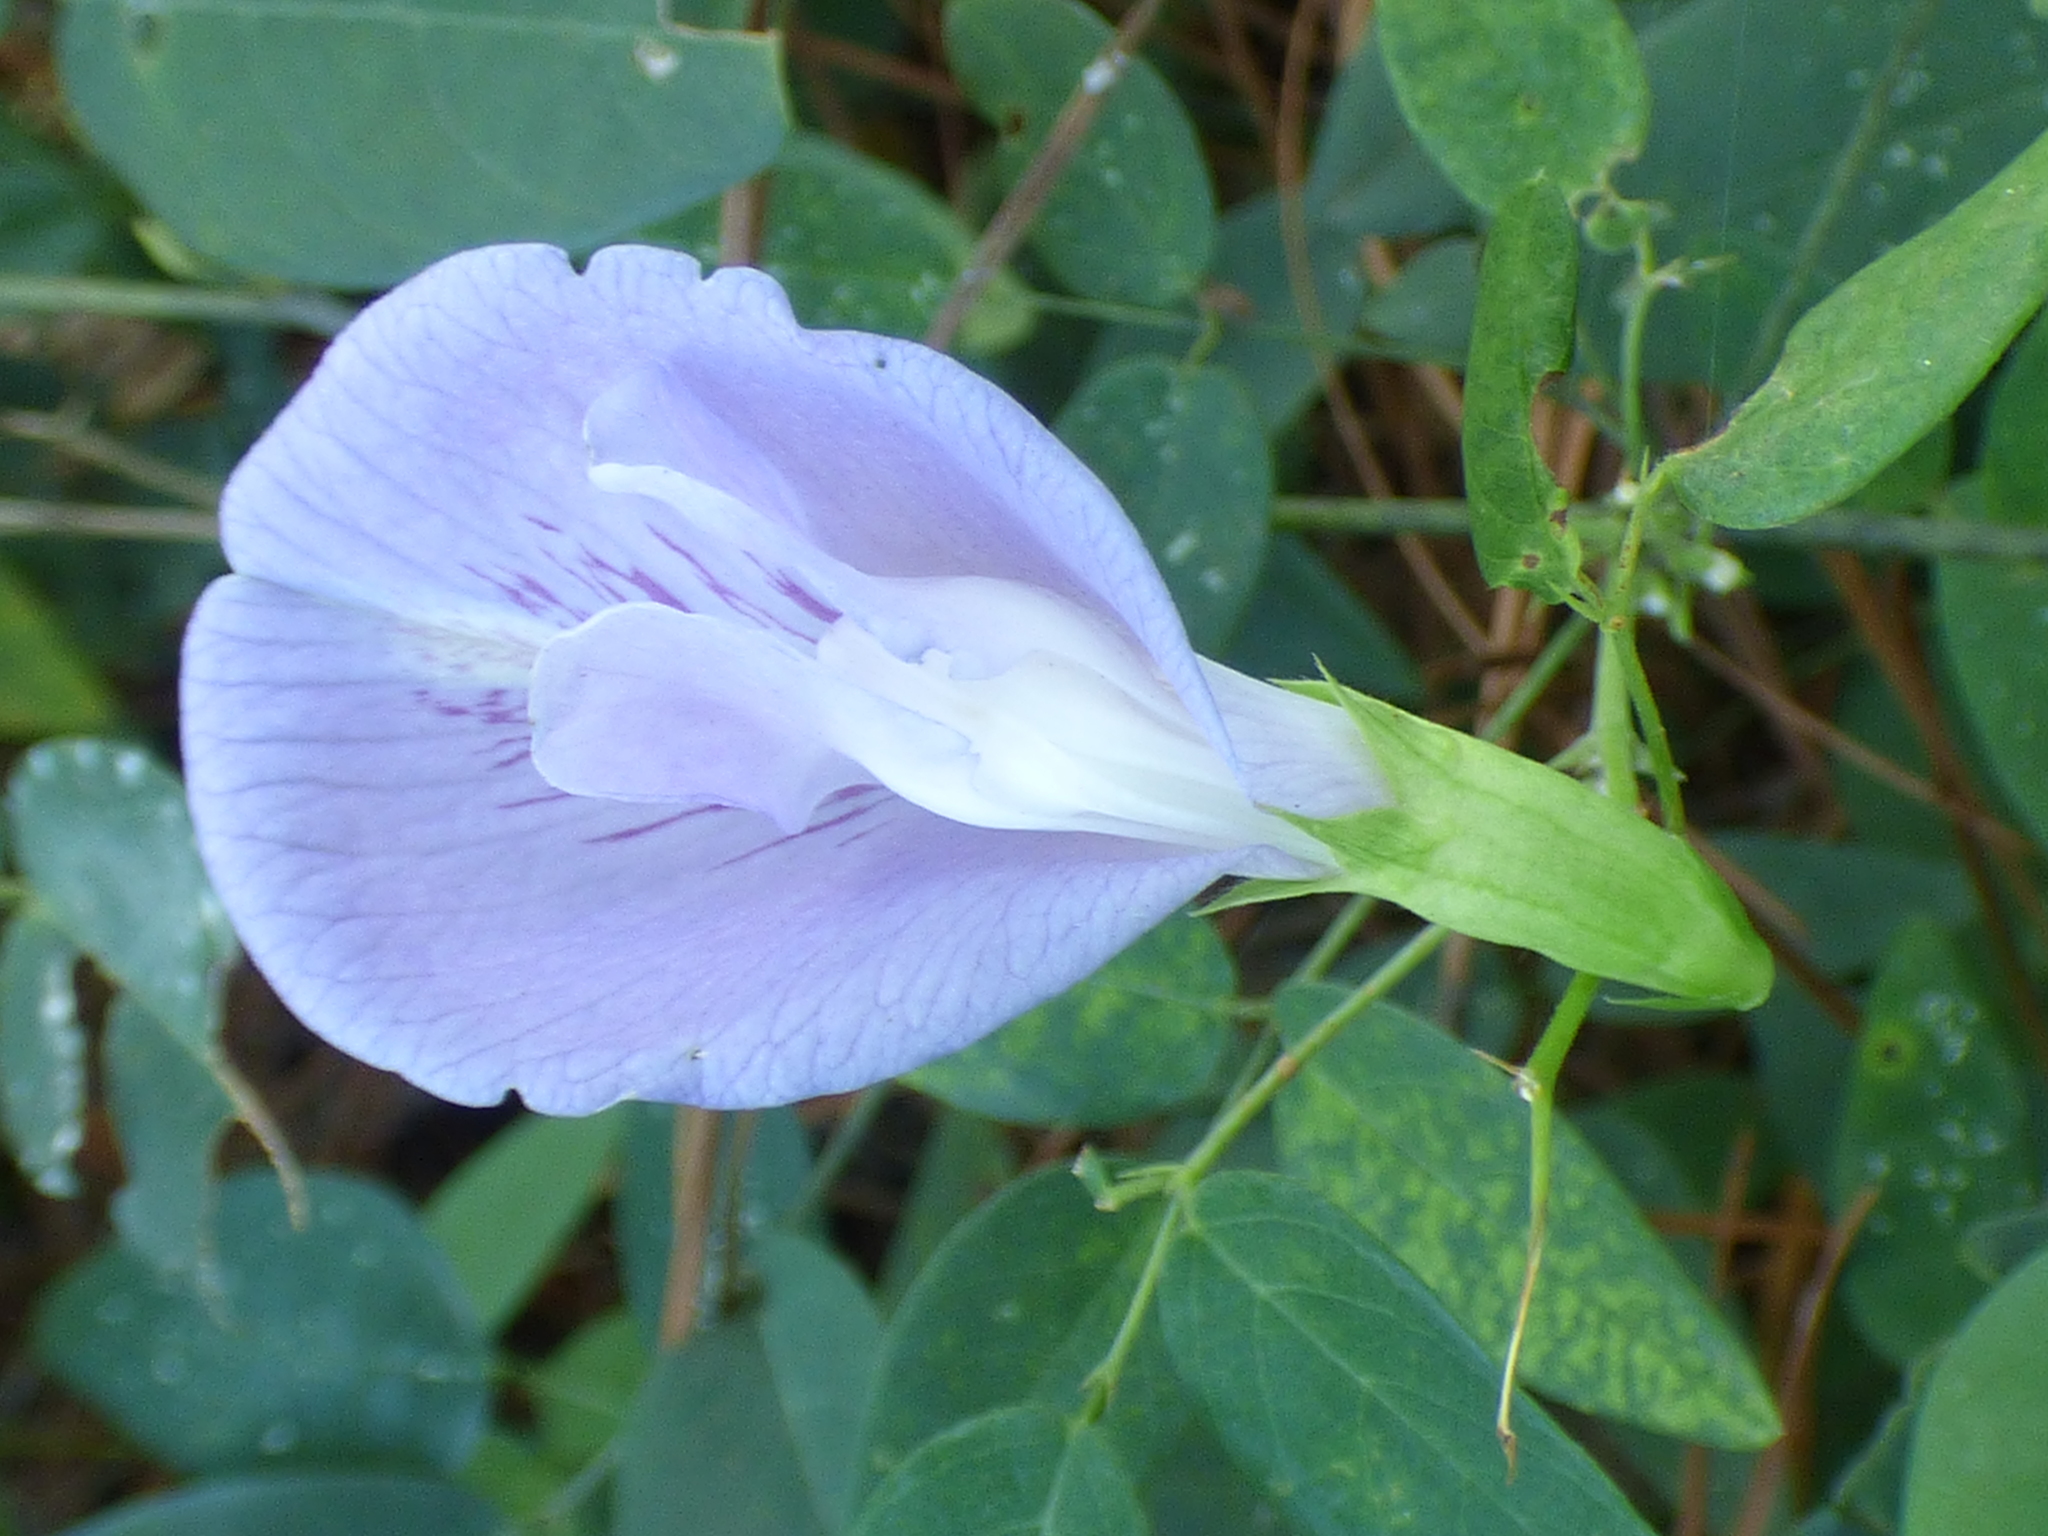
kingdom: Plantae
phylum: Tracheophyta
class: Magnoliopsida
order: Fabales
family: Fabaceae
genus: Clitoria
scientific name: Clitoria mariana
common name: Butterfly-pea
